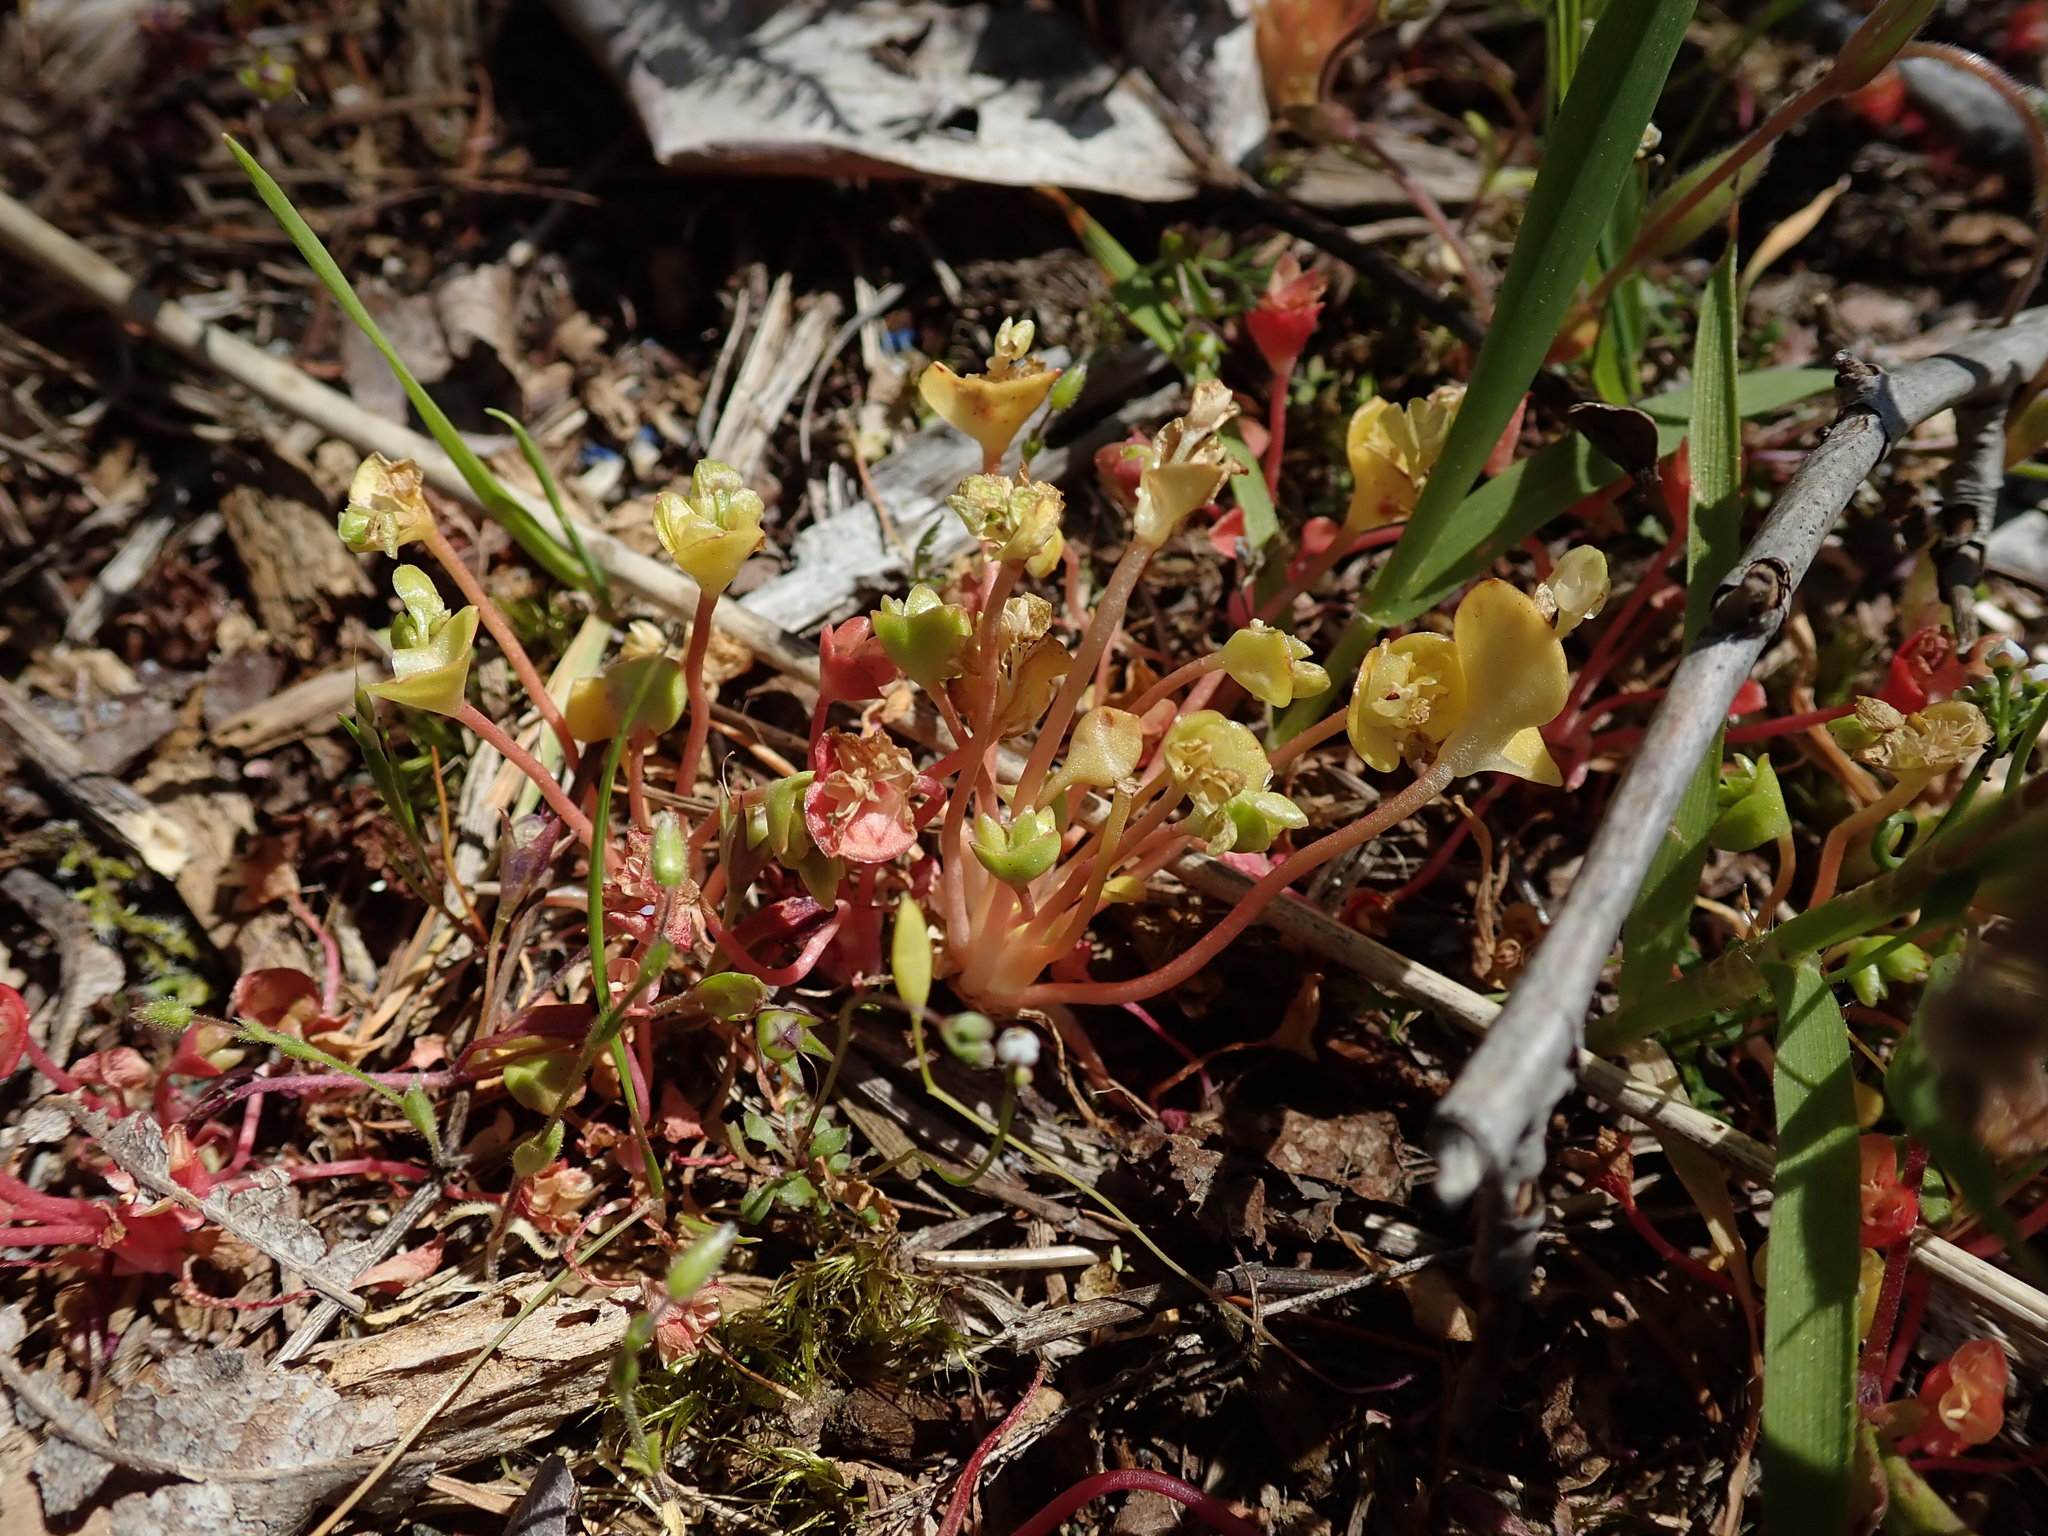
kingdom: Plantae
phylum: Tracheophyta
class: Magnoliopsida
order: Caryophyllales
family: Montiaceae
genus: Claytonia
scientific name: Claytonia rubra
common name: Erubescent miner's-lettuce
